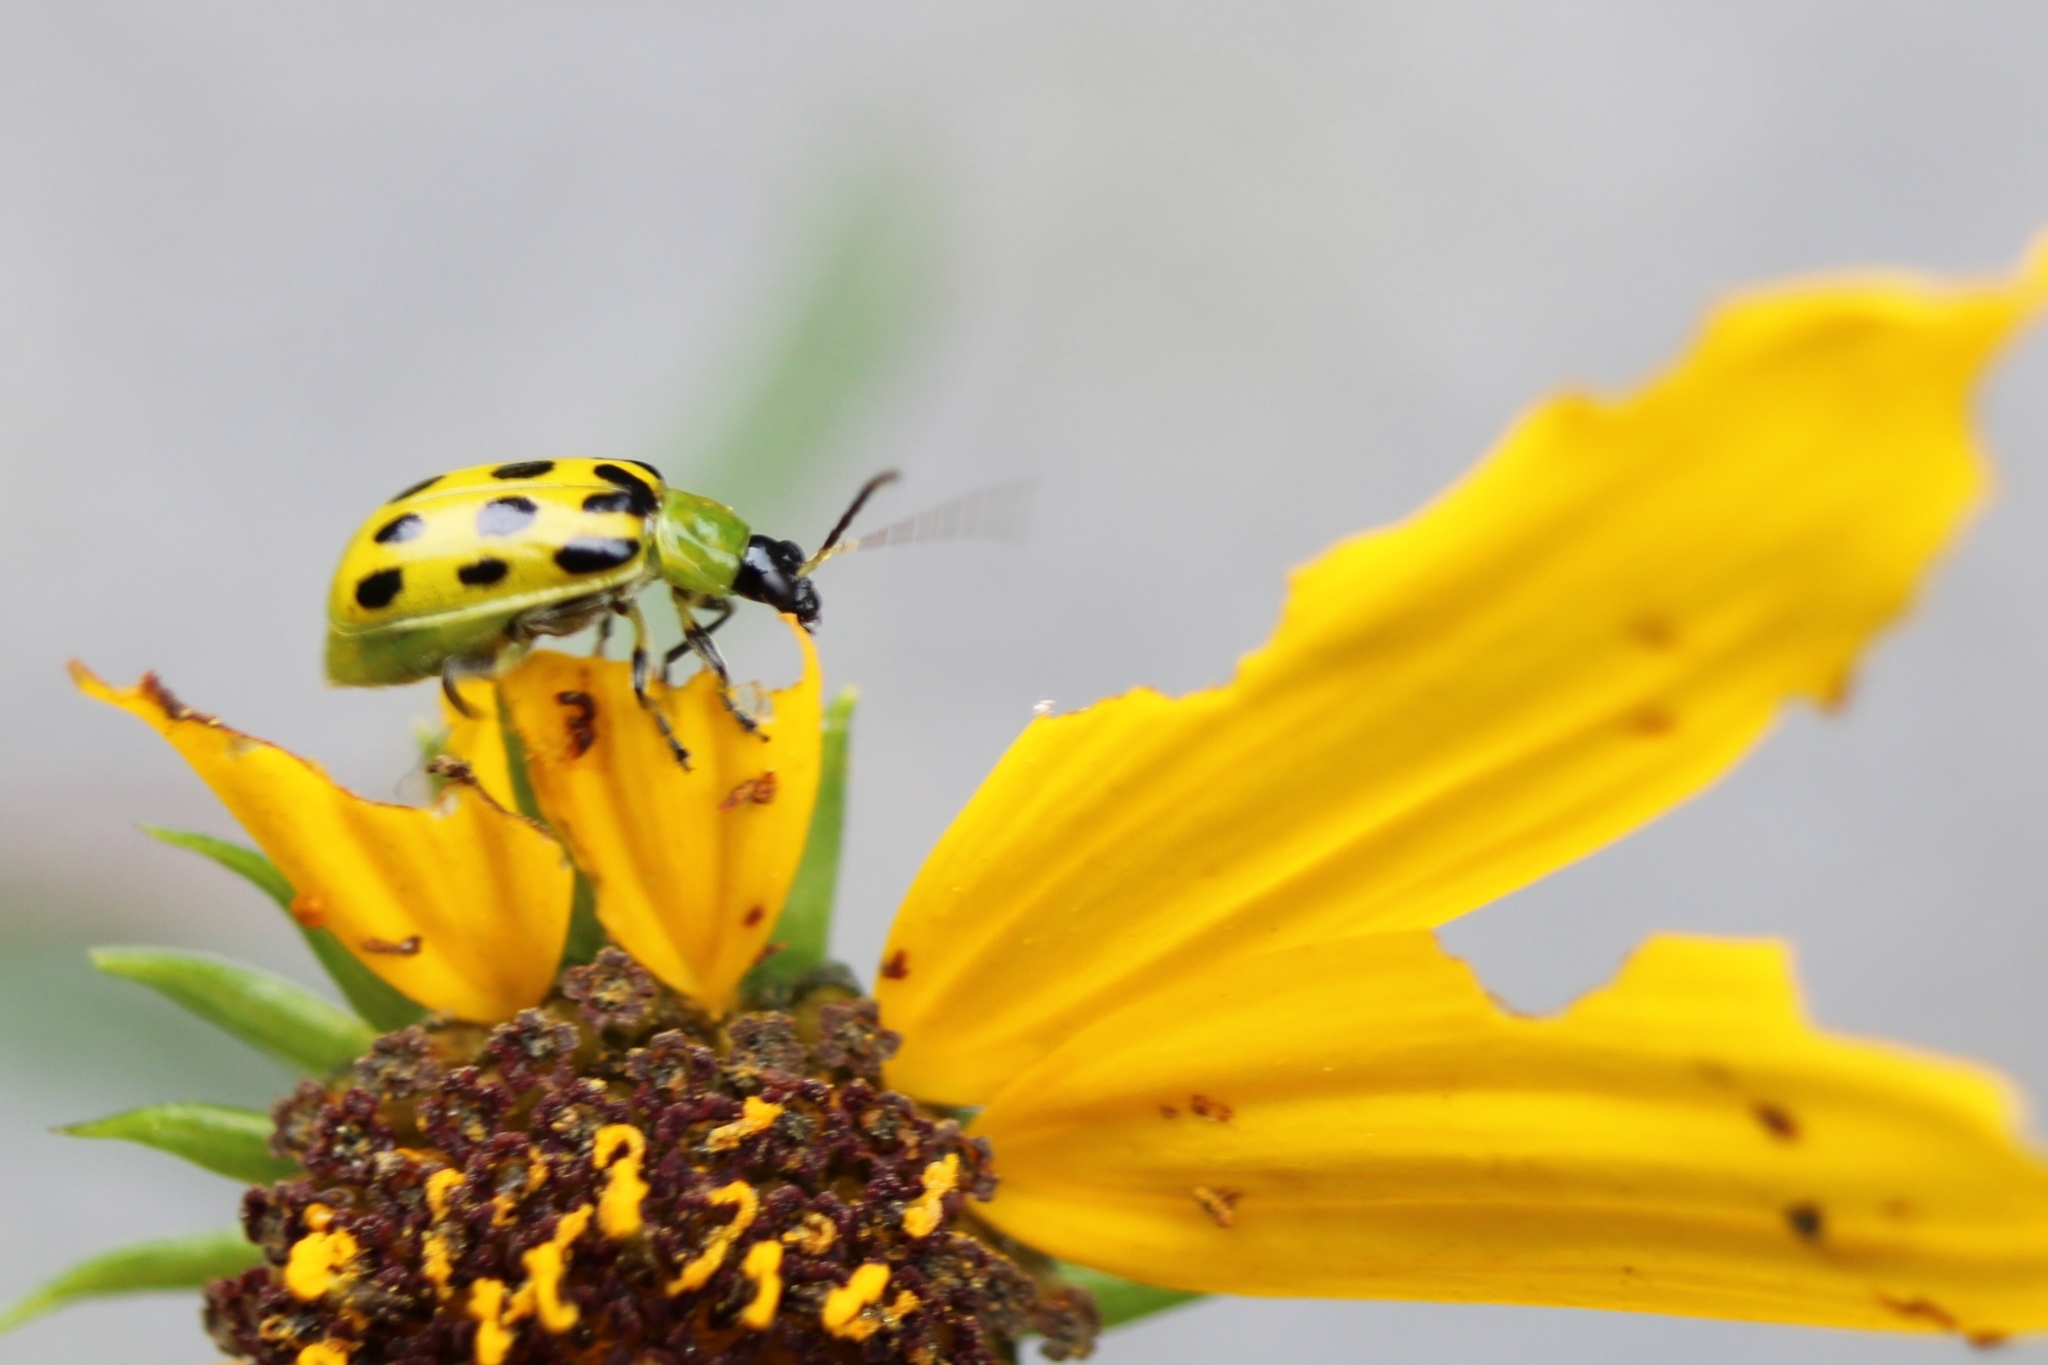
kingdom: Animalia
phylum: Arthropoda
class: Insecta
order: Coleoptera
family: Chrysomelidae
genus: Diabrotica
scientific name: Diabrotica undecimpunctata
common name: Spotted cucumber beetle
